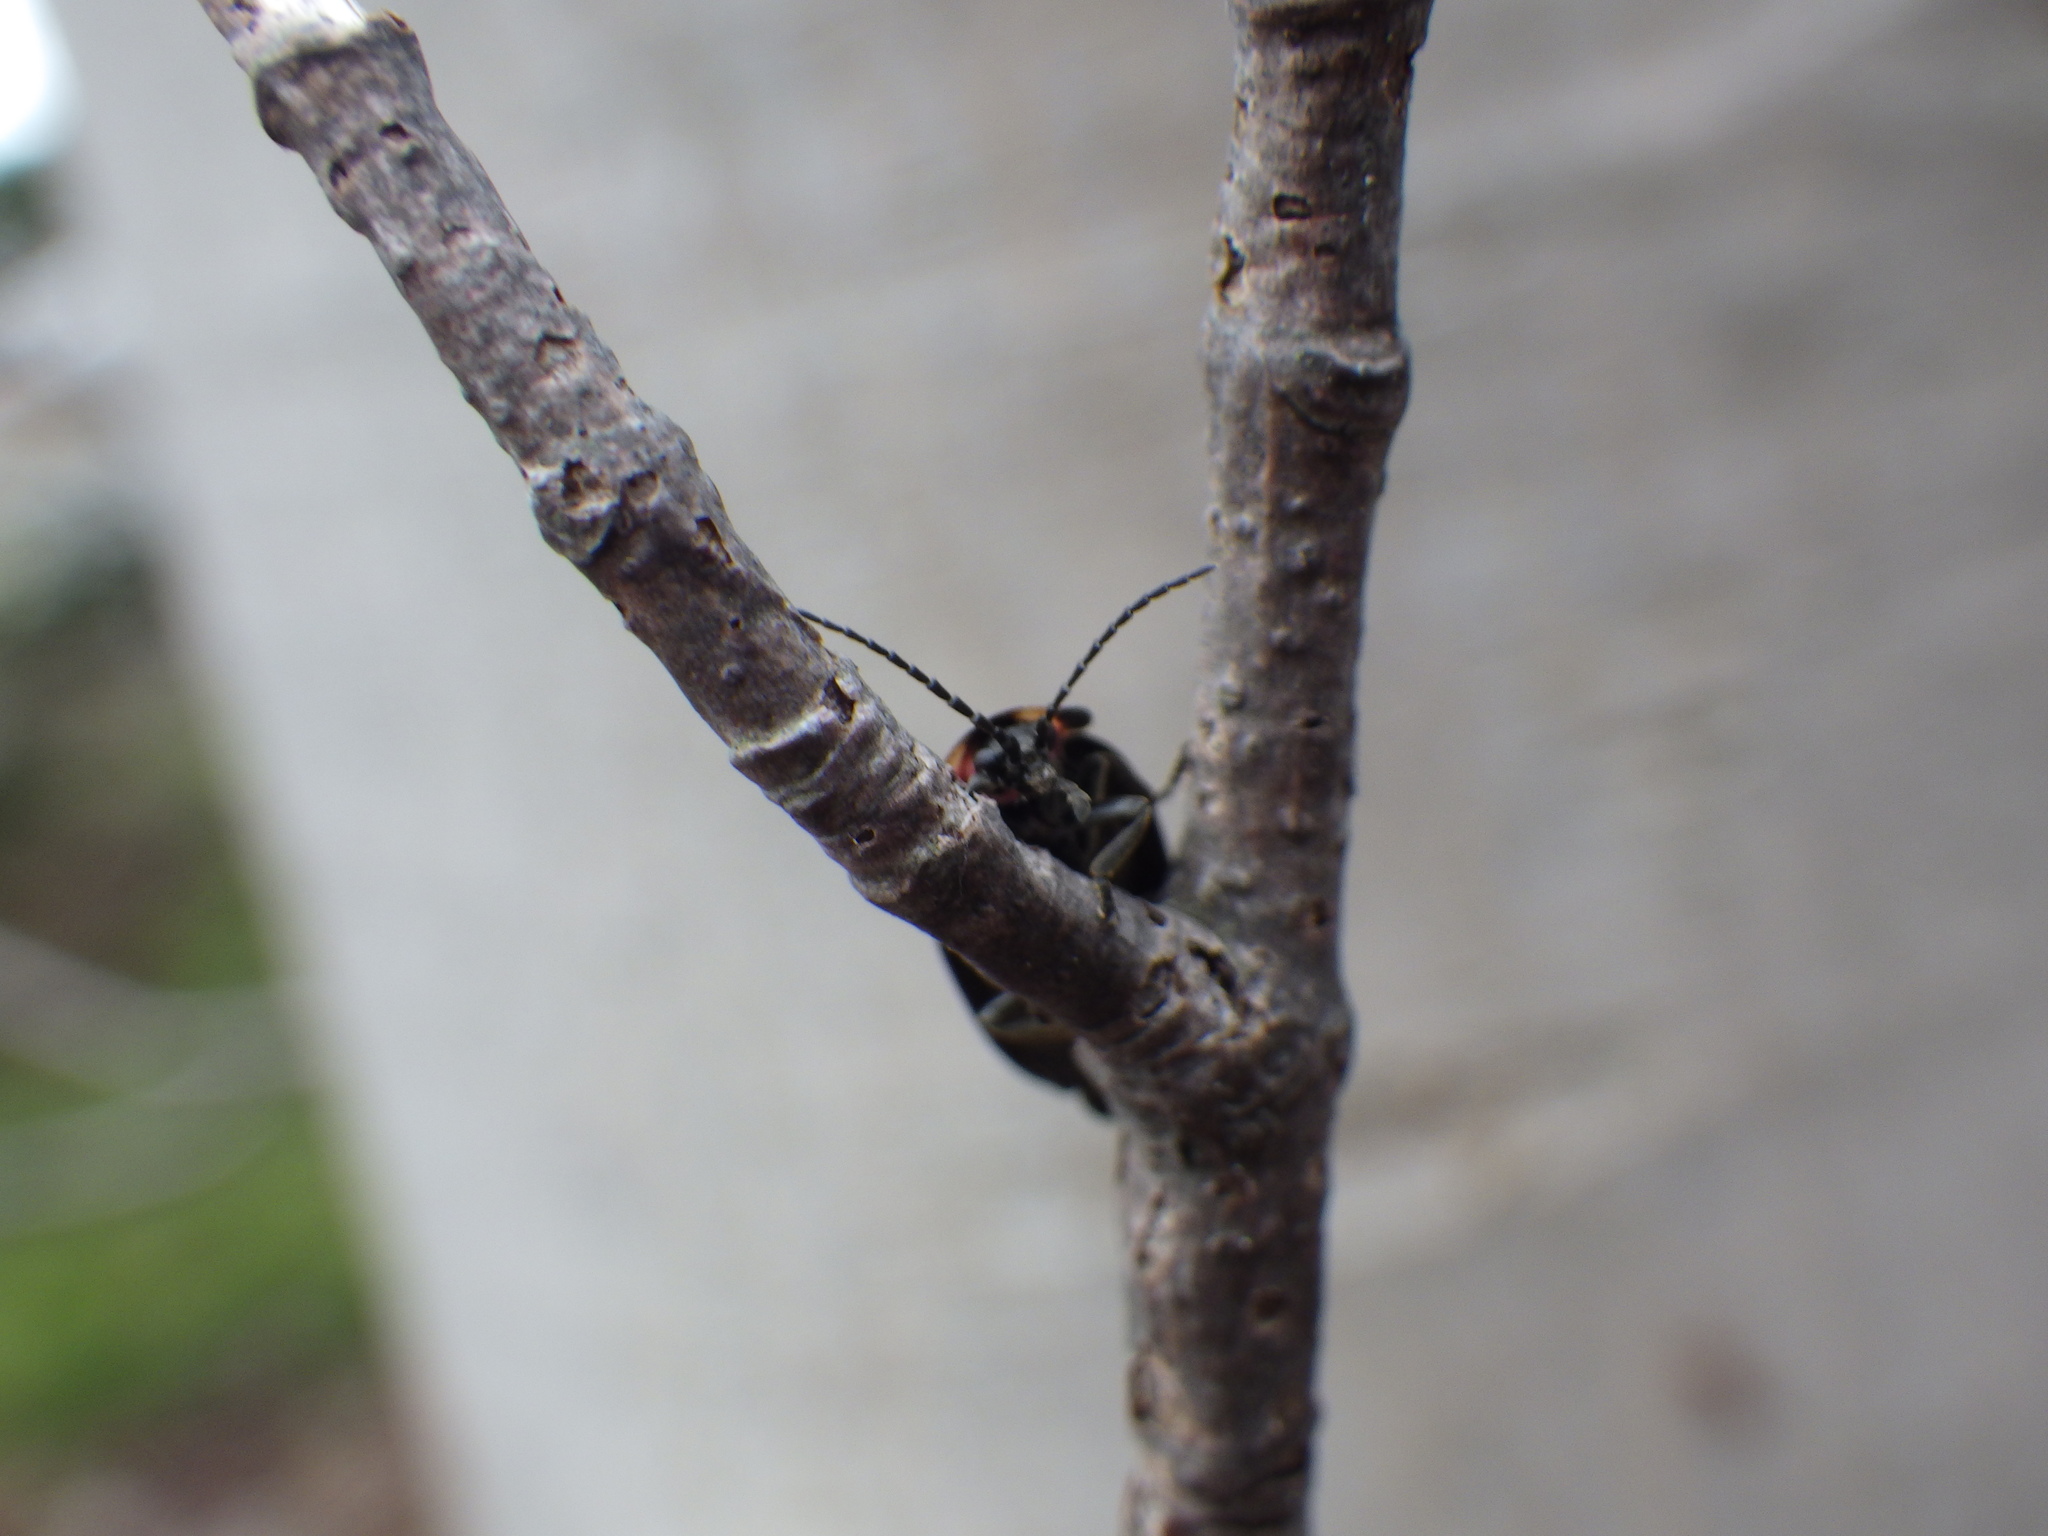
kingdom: Animalia
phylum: Arthropoda
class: Insecta
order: Coleoptera
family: Lampyridae
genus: Photinus
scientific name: Photinus corrusca
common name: Winter firefly
